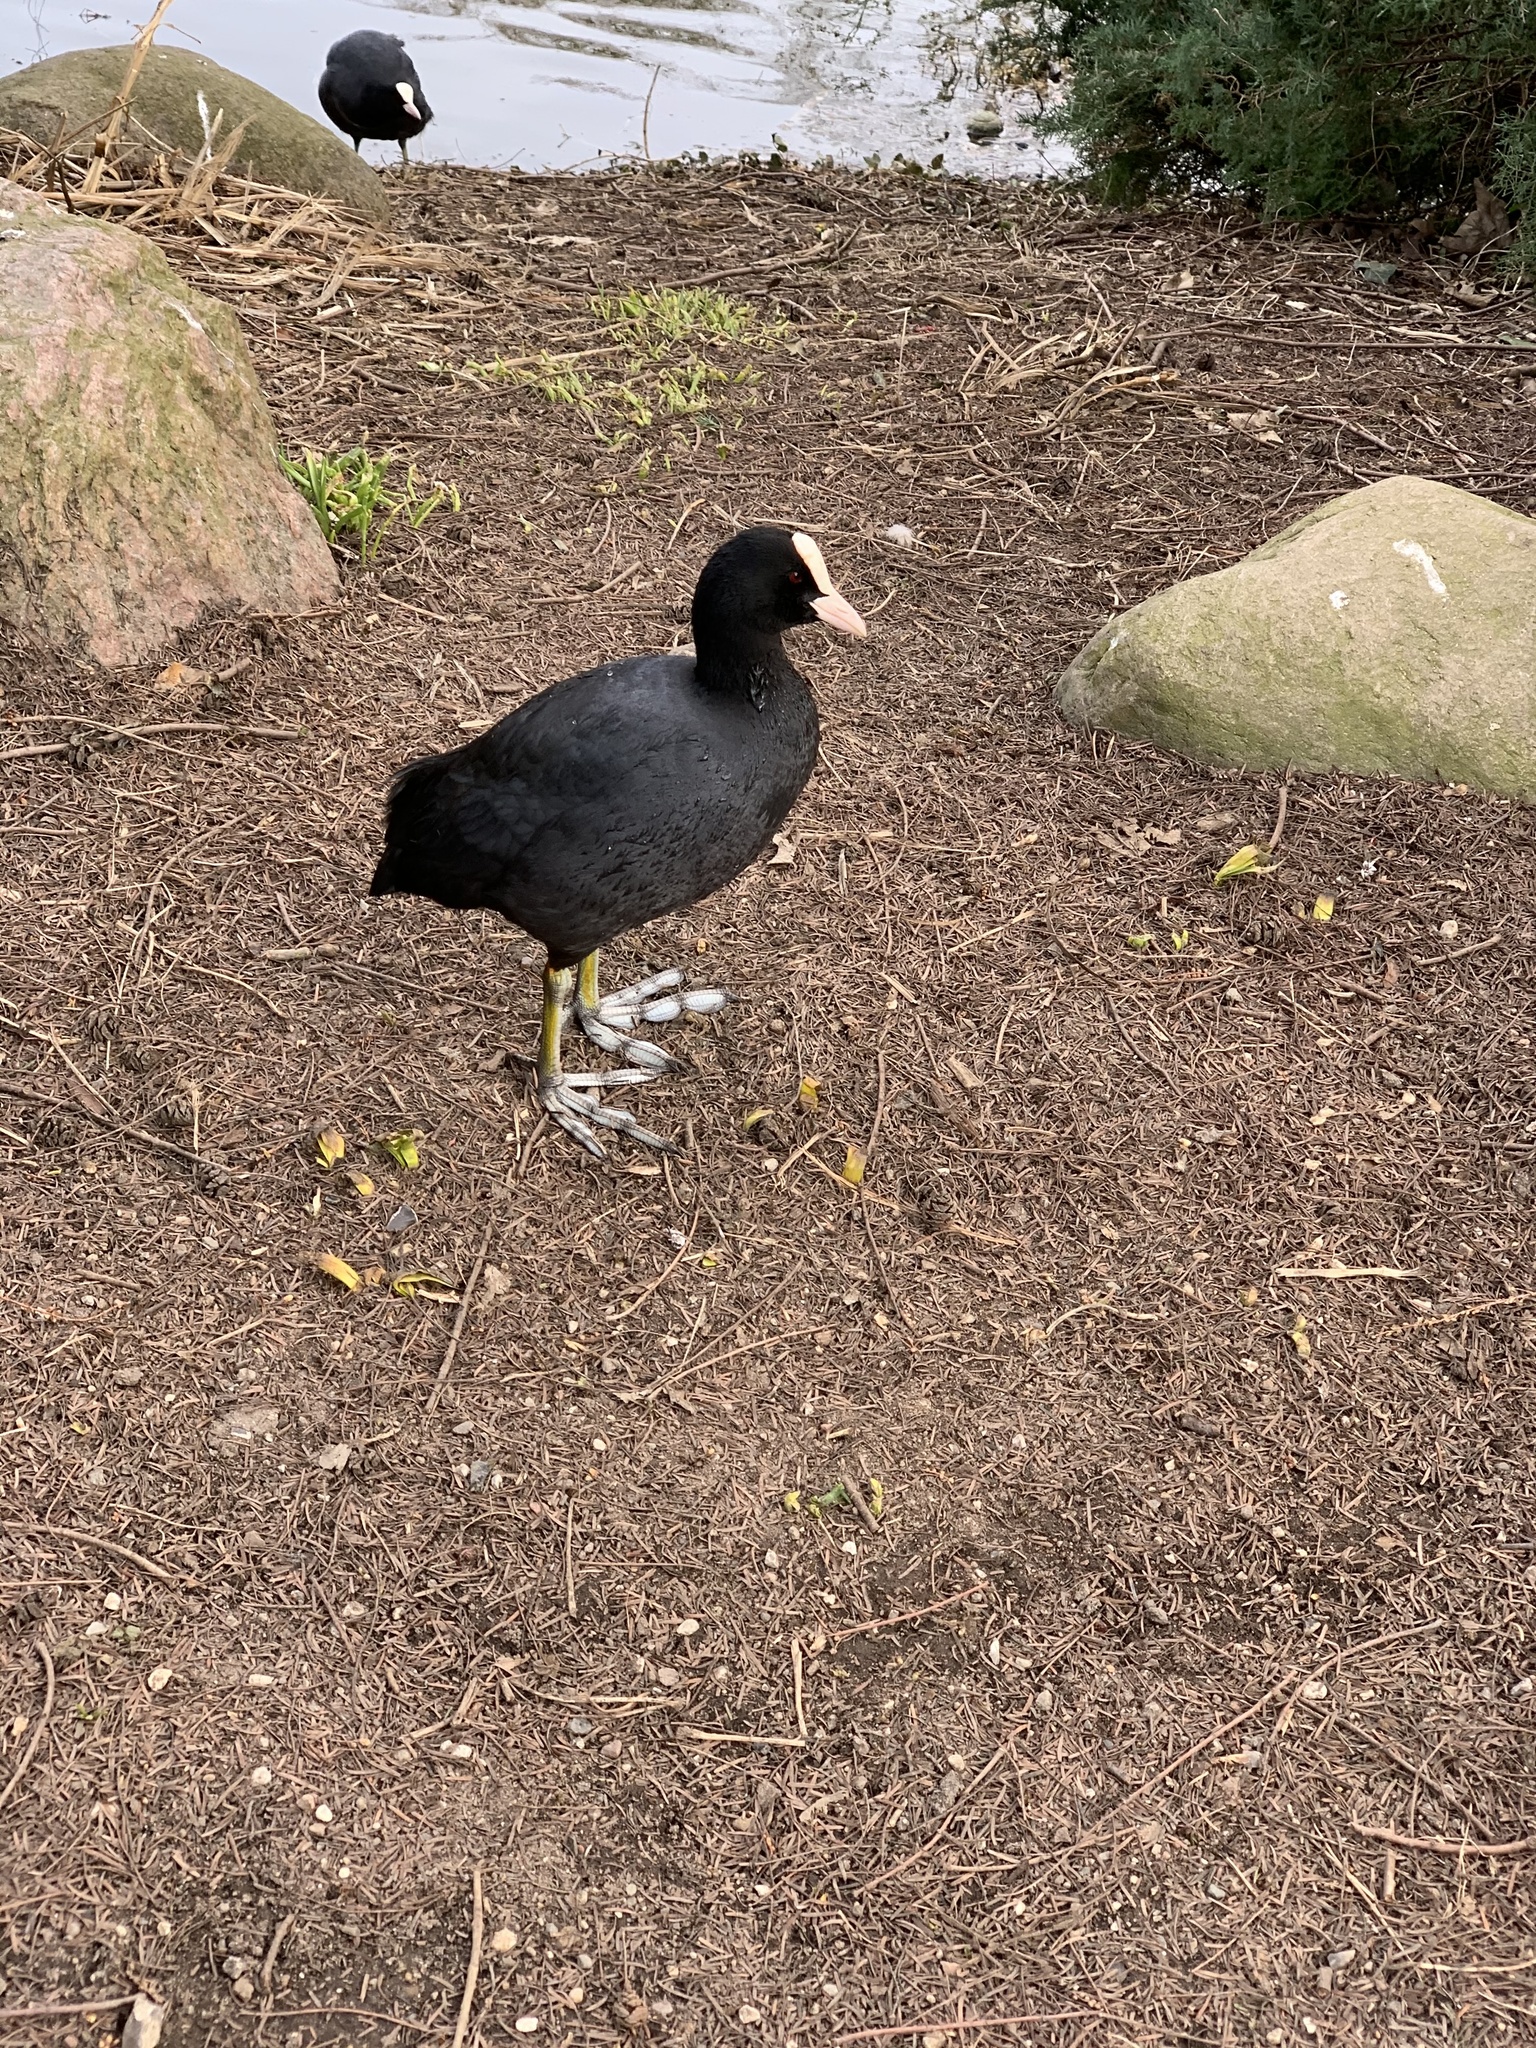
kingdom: Animalia
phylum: Chordata
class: Aves
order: Gruiformes
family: Rallidae
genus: Fulica
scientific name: Fulica atra
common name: Eurasian coot
